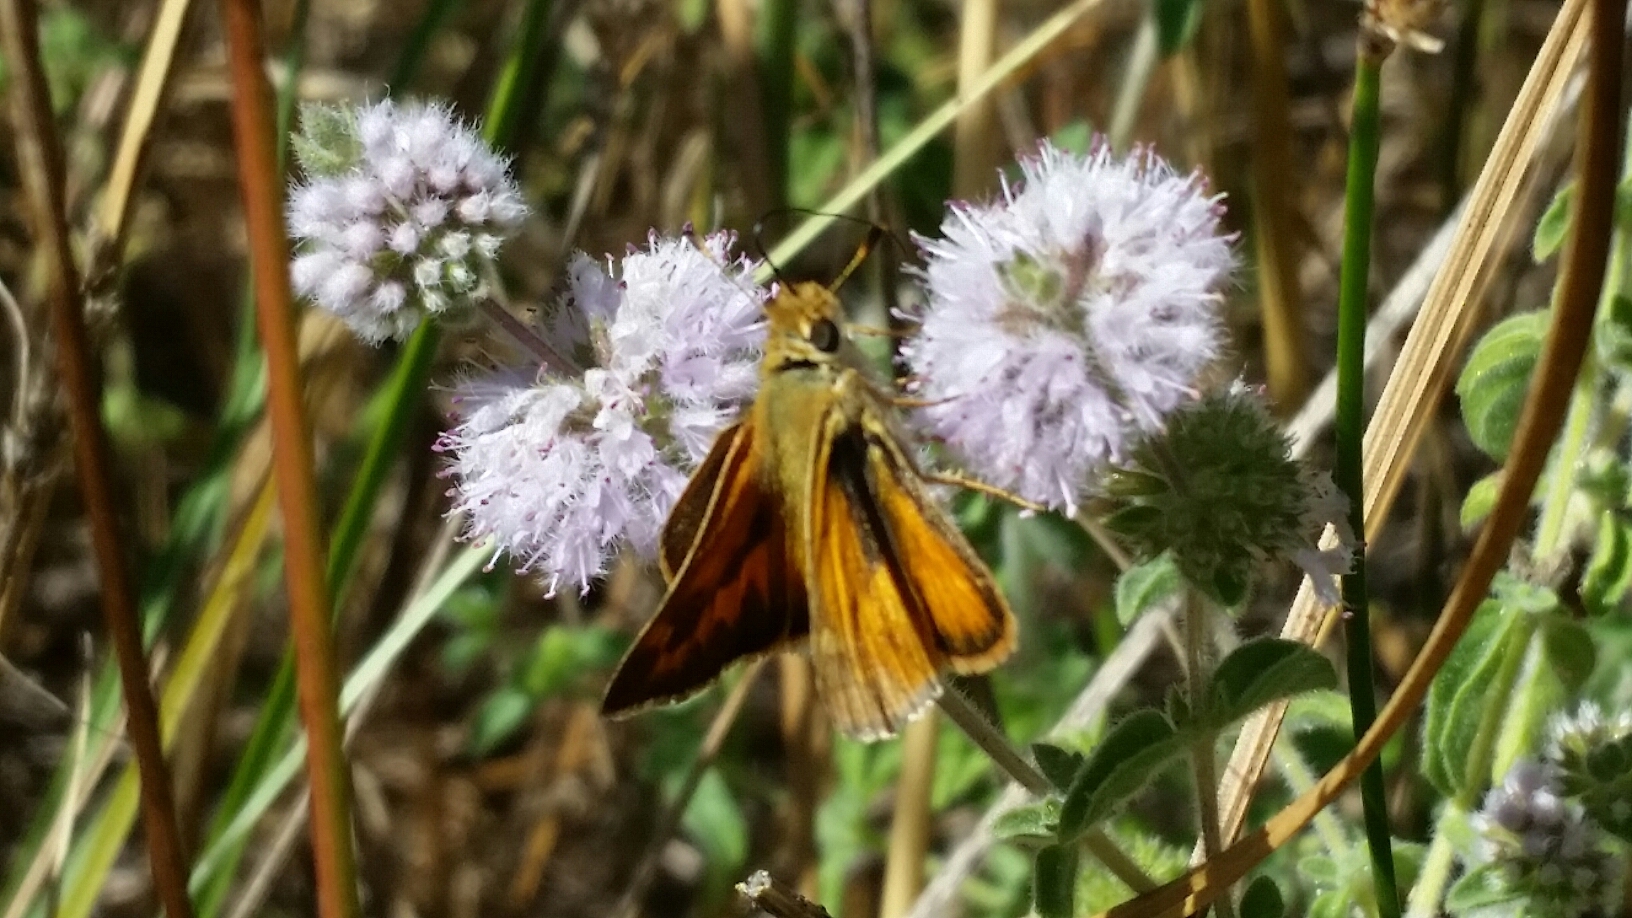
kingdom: Animalia
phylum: Arthropoda
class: Insecta
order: Lepidoptera
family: Hesperiidae
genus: Ochlodes
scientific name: Ochlodes sylvanoides
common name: Woodland skipper
